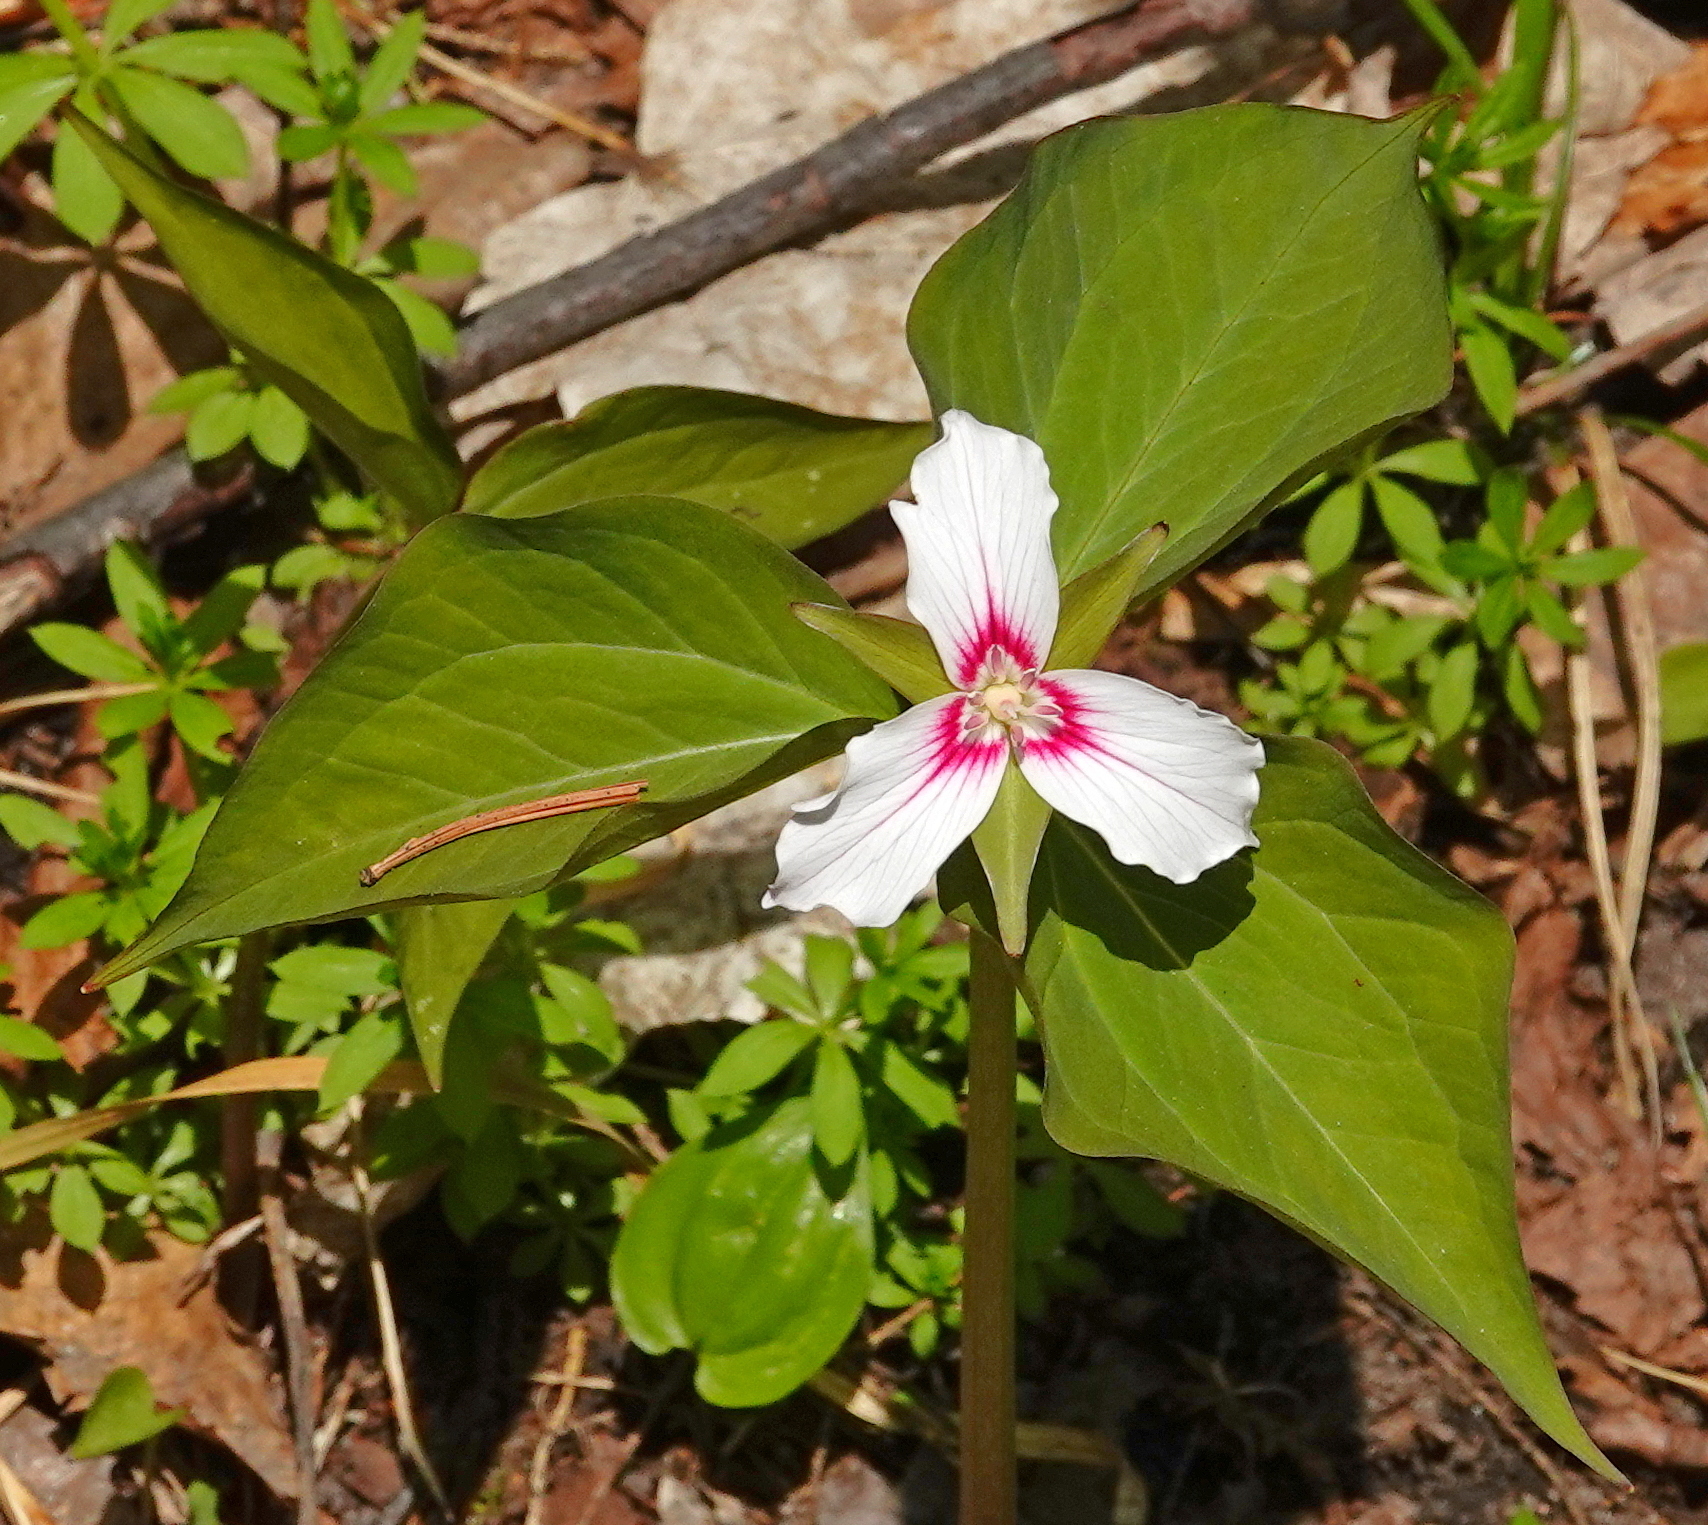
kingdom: Plantae
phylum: Tracheophyta
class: Liliopsida
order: Liliales
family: Melanthiaceae
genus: Trillium
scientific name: Trillium undulatum
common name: Paint trillium
